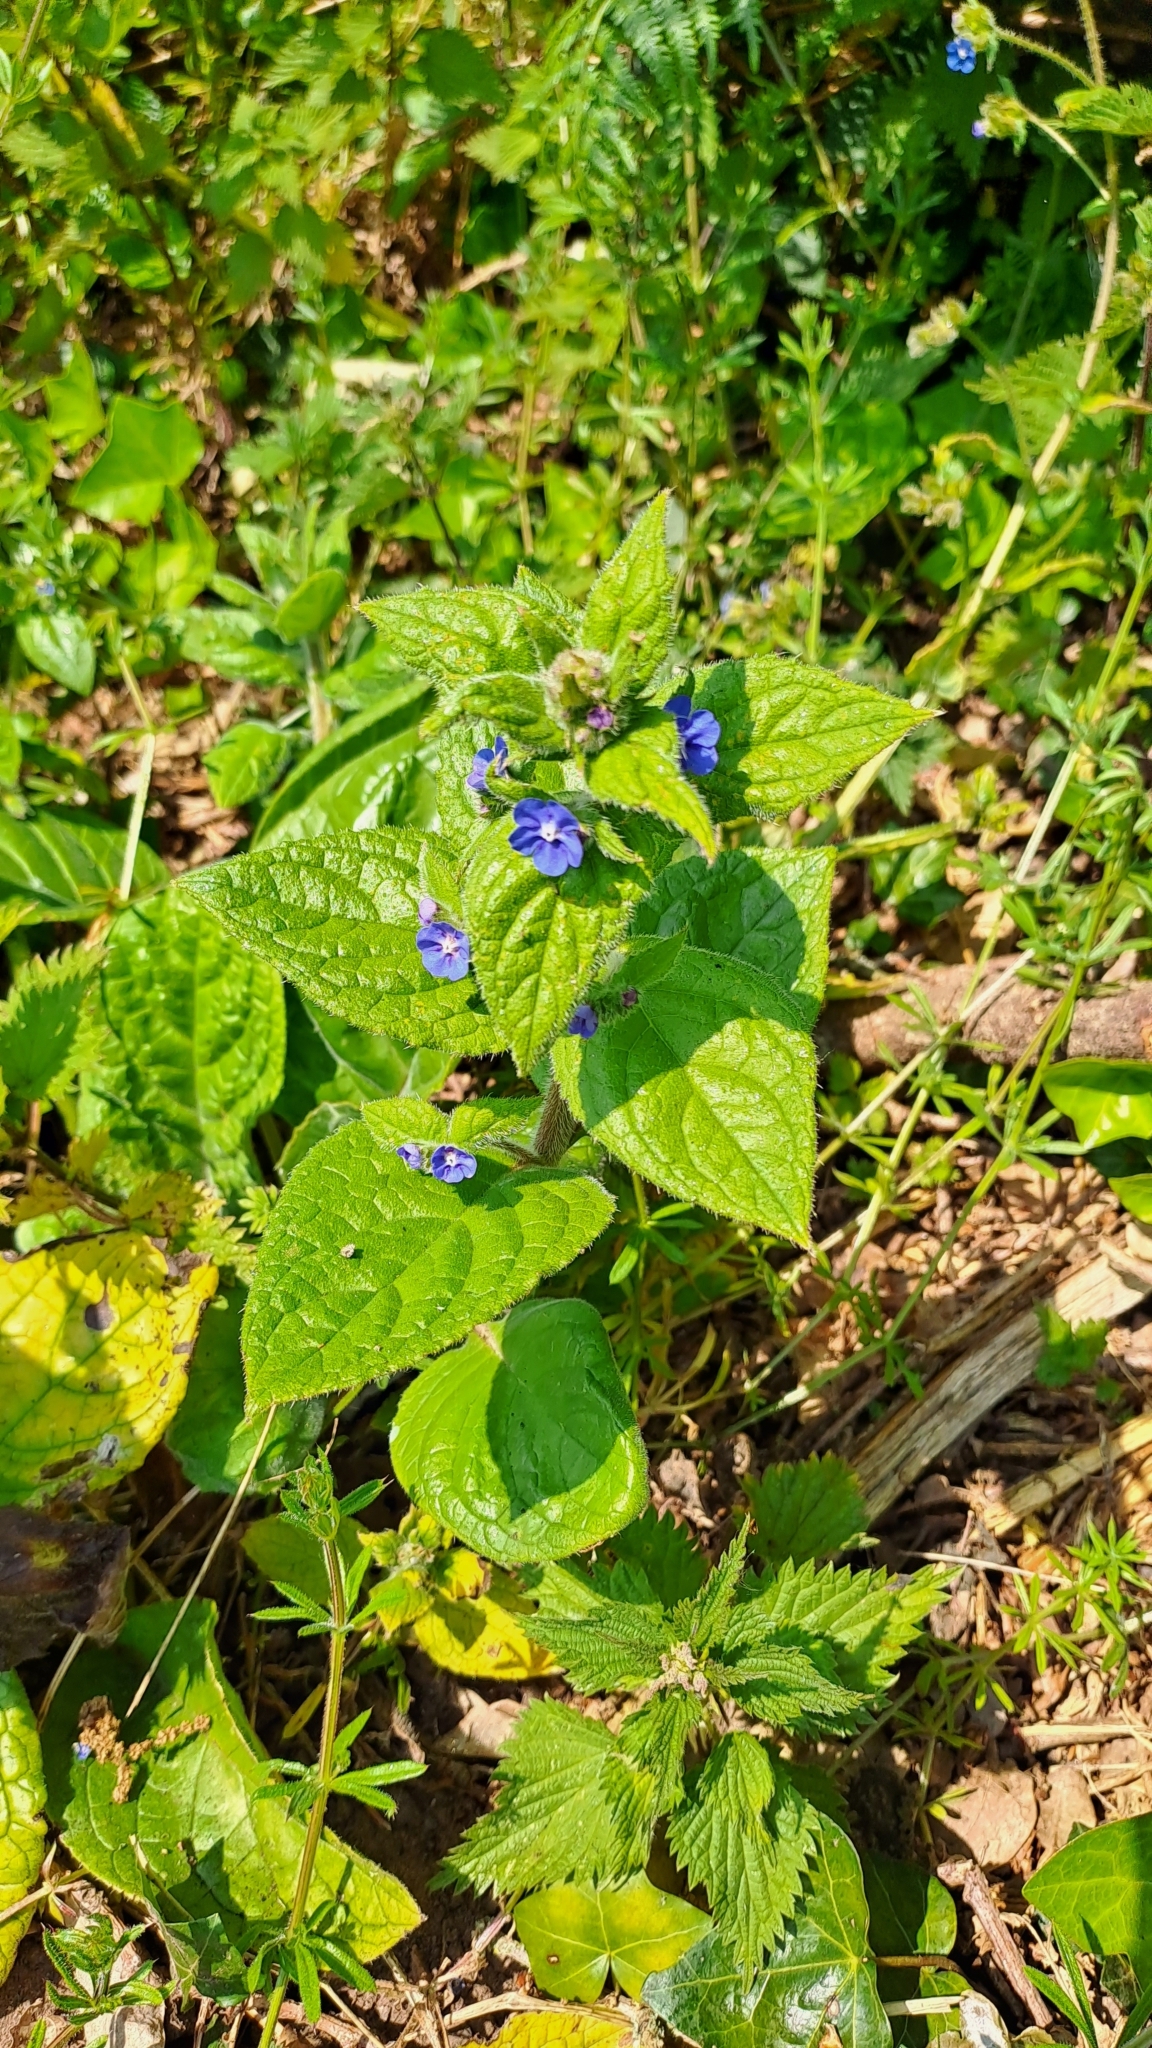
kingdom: Plantae
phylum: Tracheophyta
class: Magnoliopsida
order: Boraginales
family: Boraginaceae
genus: Pentaglottis
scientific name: Pentaglottis sempervirens
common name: Green alkanet
